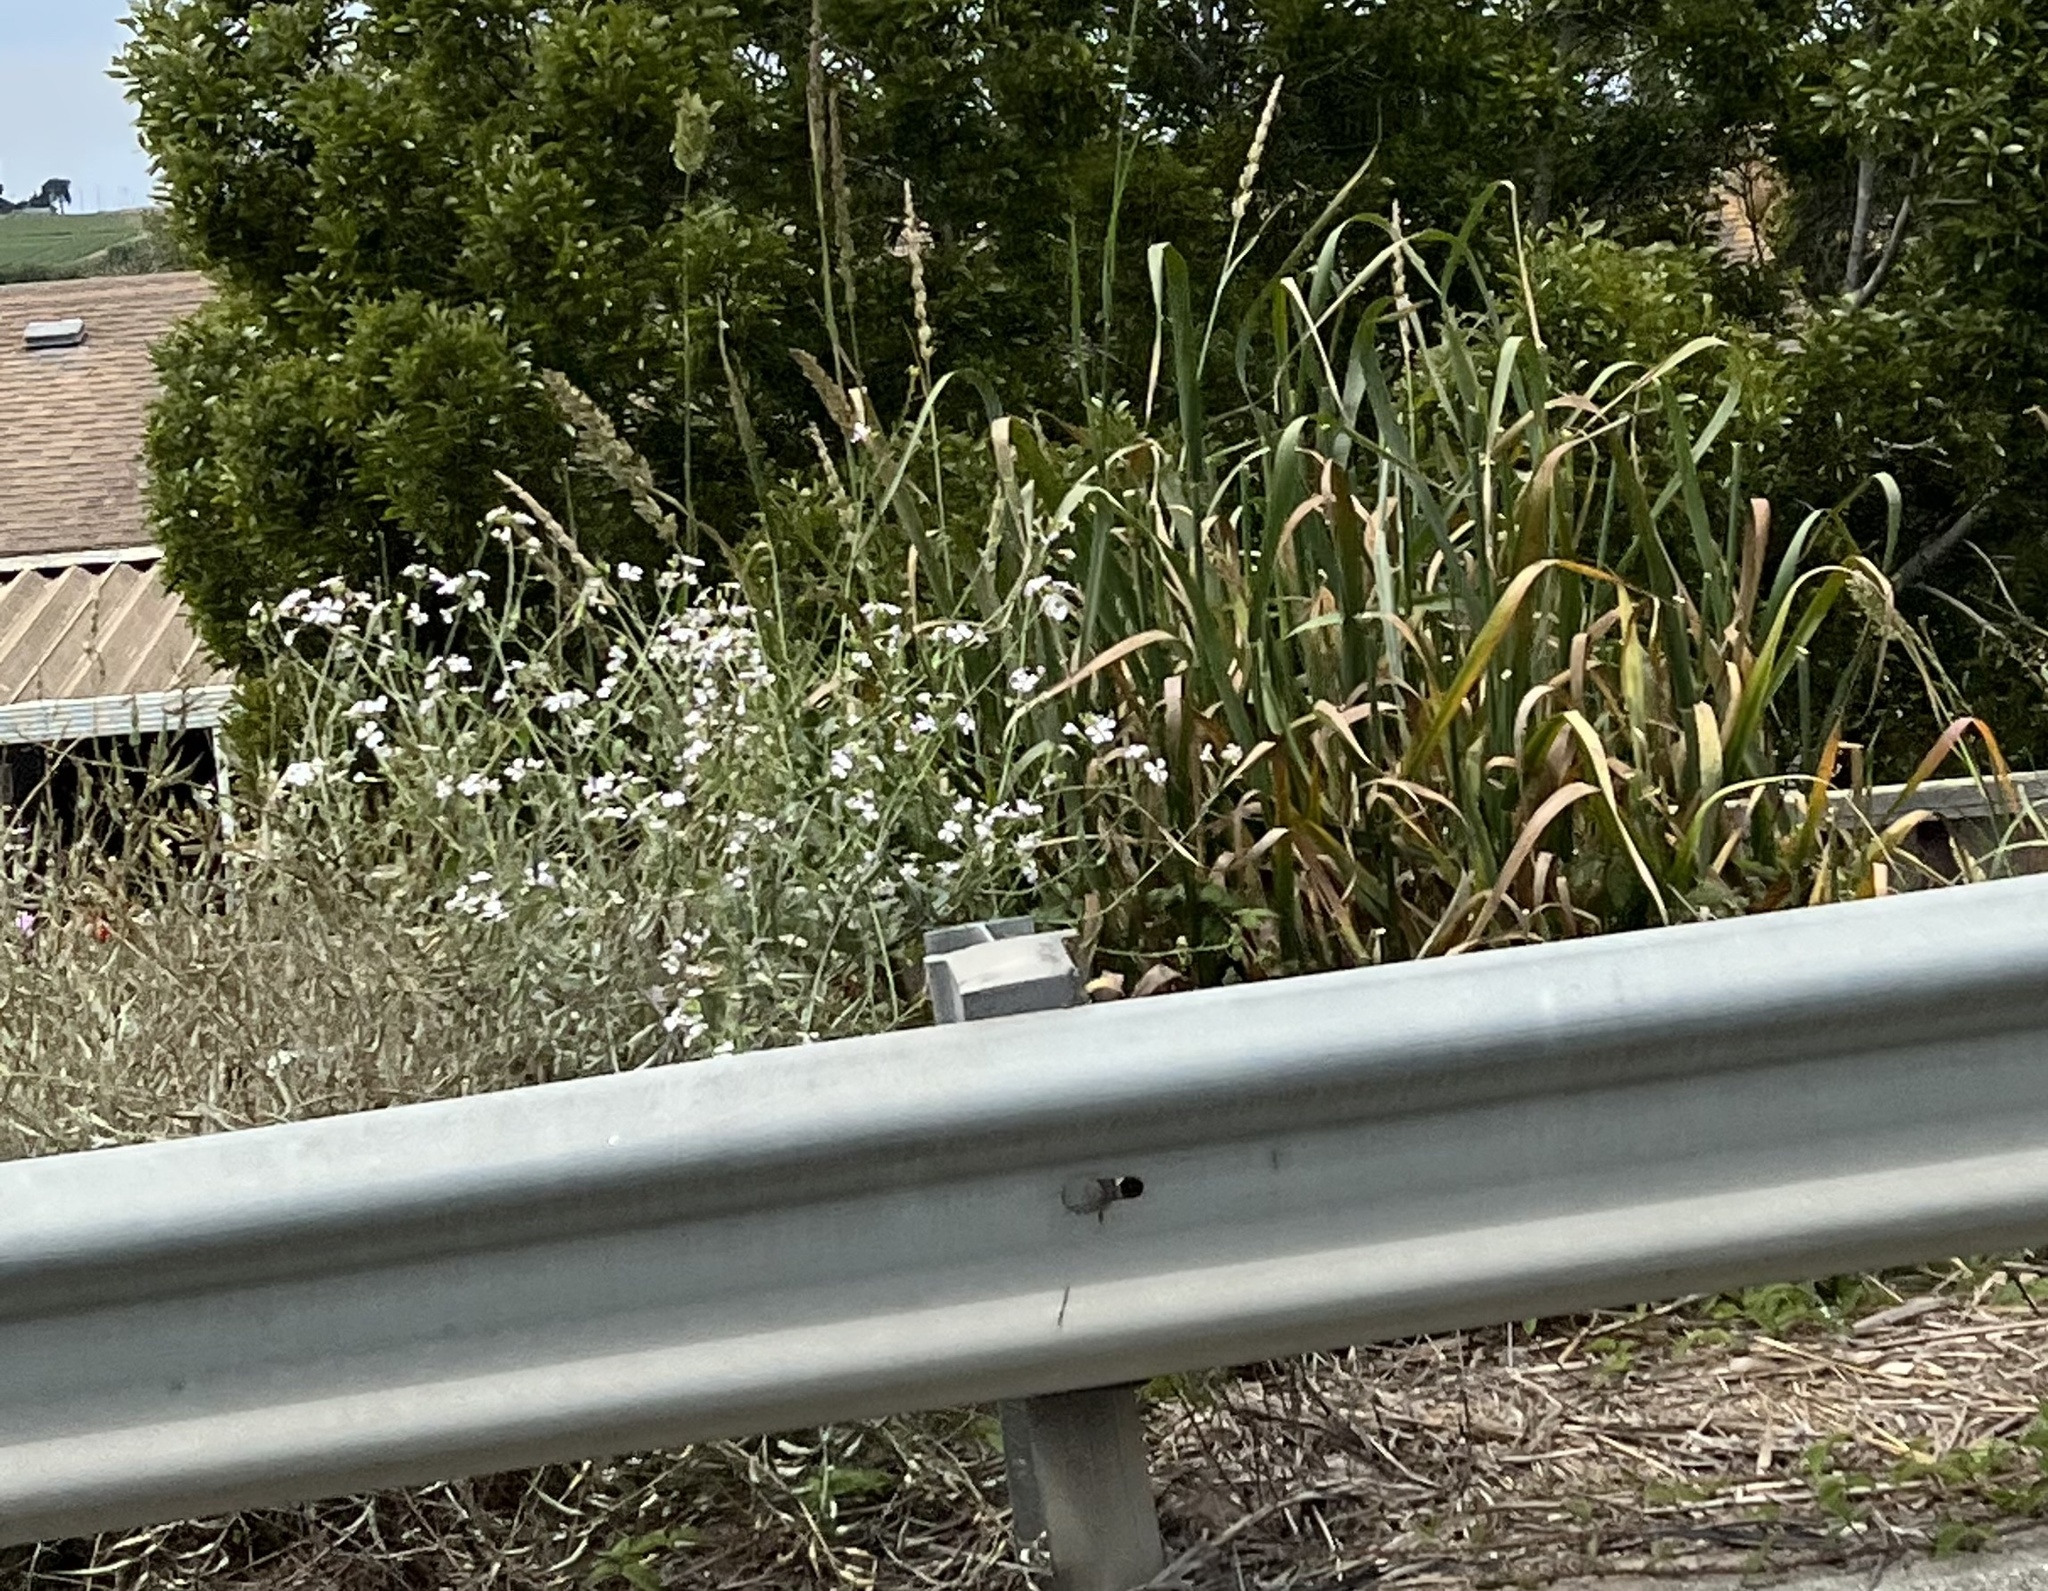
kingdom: Plantae
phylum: Tracheophyta
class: Liliopsida
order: Poales
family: Poaceae
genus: Leymus
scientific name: Leymus condensatus
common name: Giant wild rye
